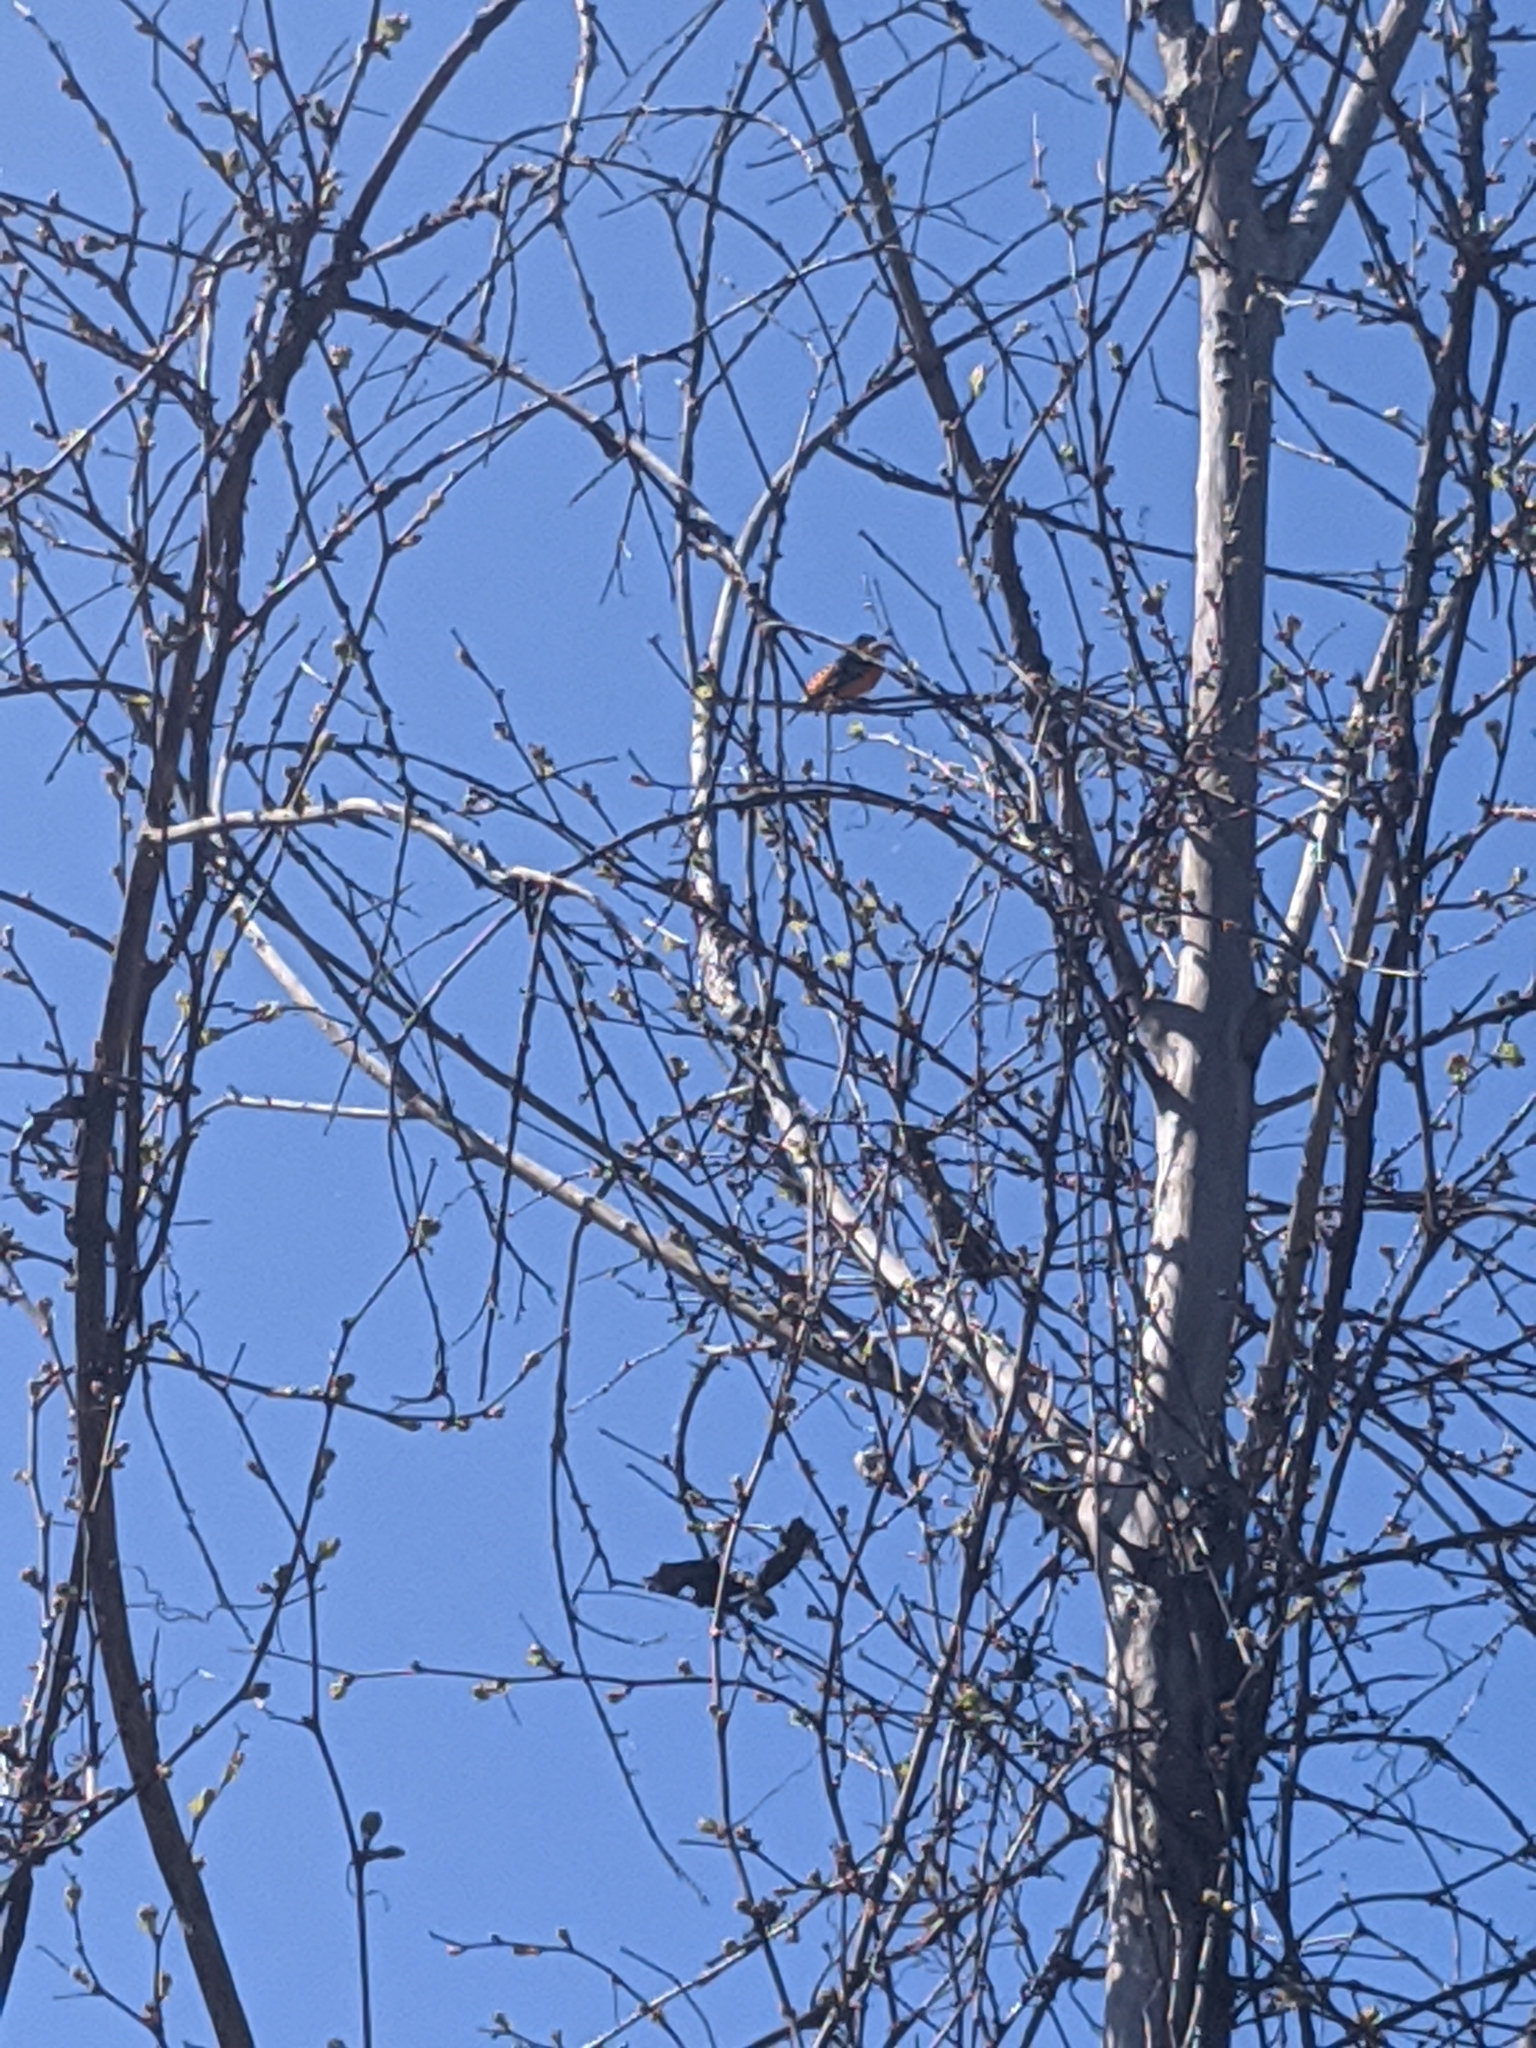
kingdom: Animalia
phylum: Chordata
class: Aves
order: Passeriformes
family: Icteridae
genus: Icterus
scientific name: Icterus galbula
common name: Baltimore oriole
